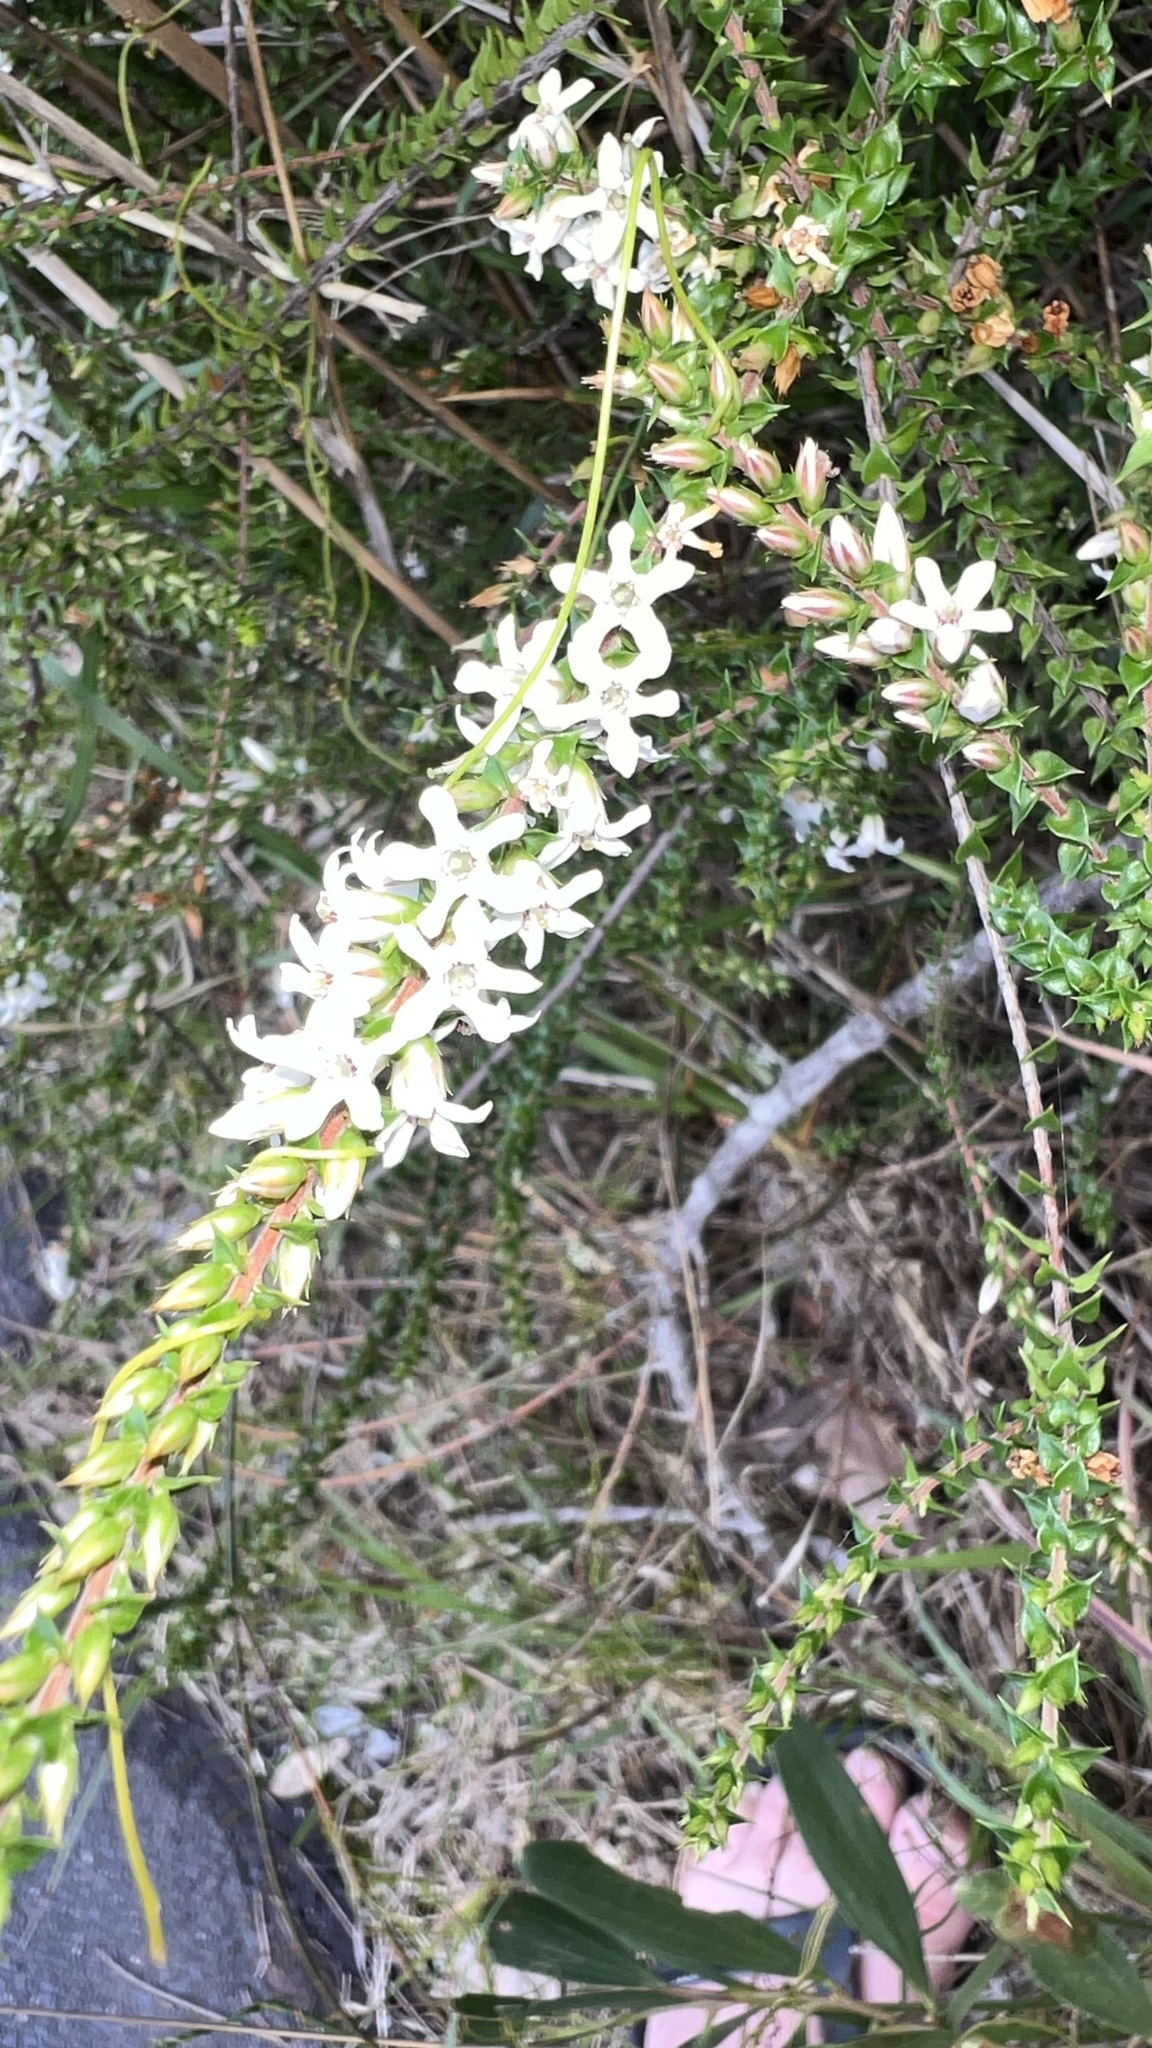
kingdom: Plantae
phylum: Tracheophyta
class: Magnoliopsida
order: Ericales
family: Ericaceae
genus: Epacris
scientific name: Epacris pulchella
